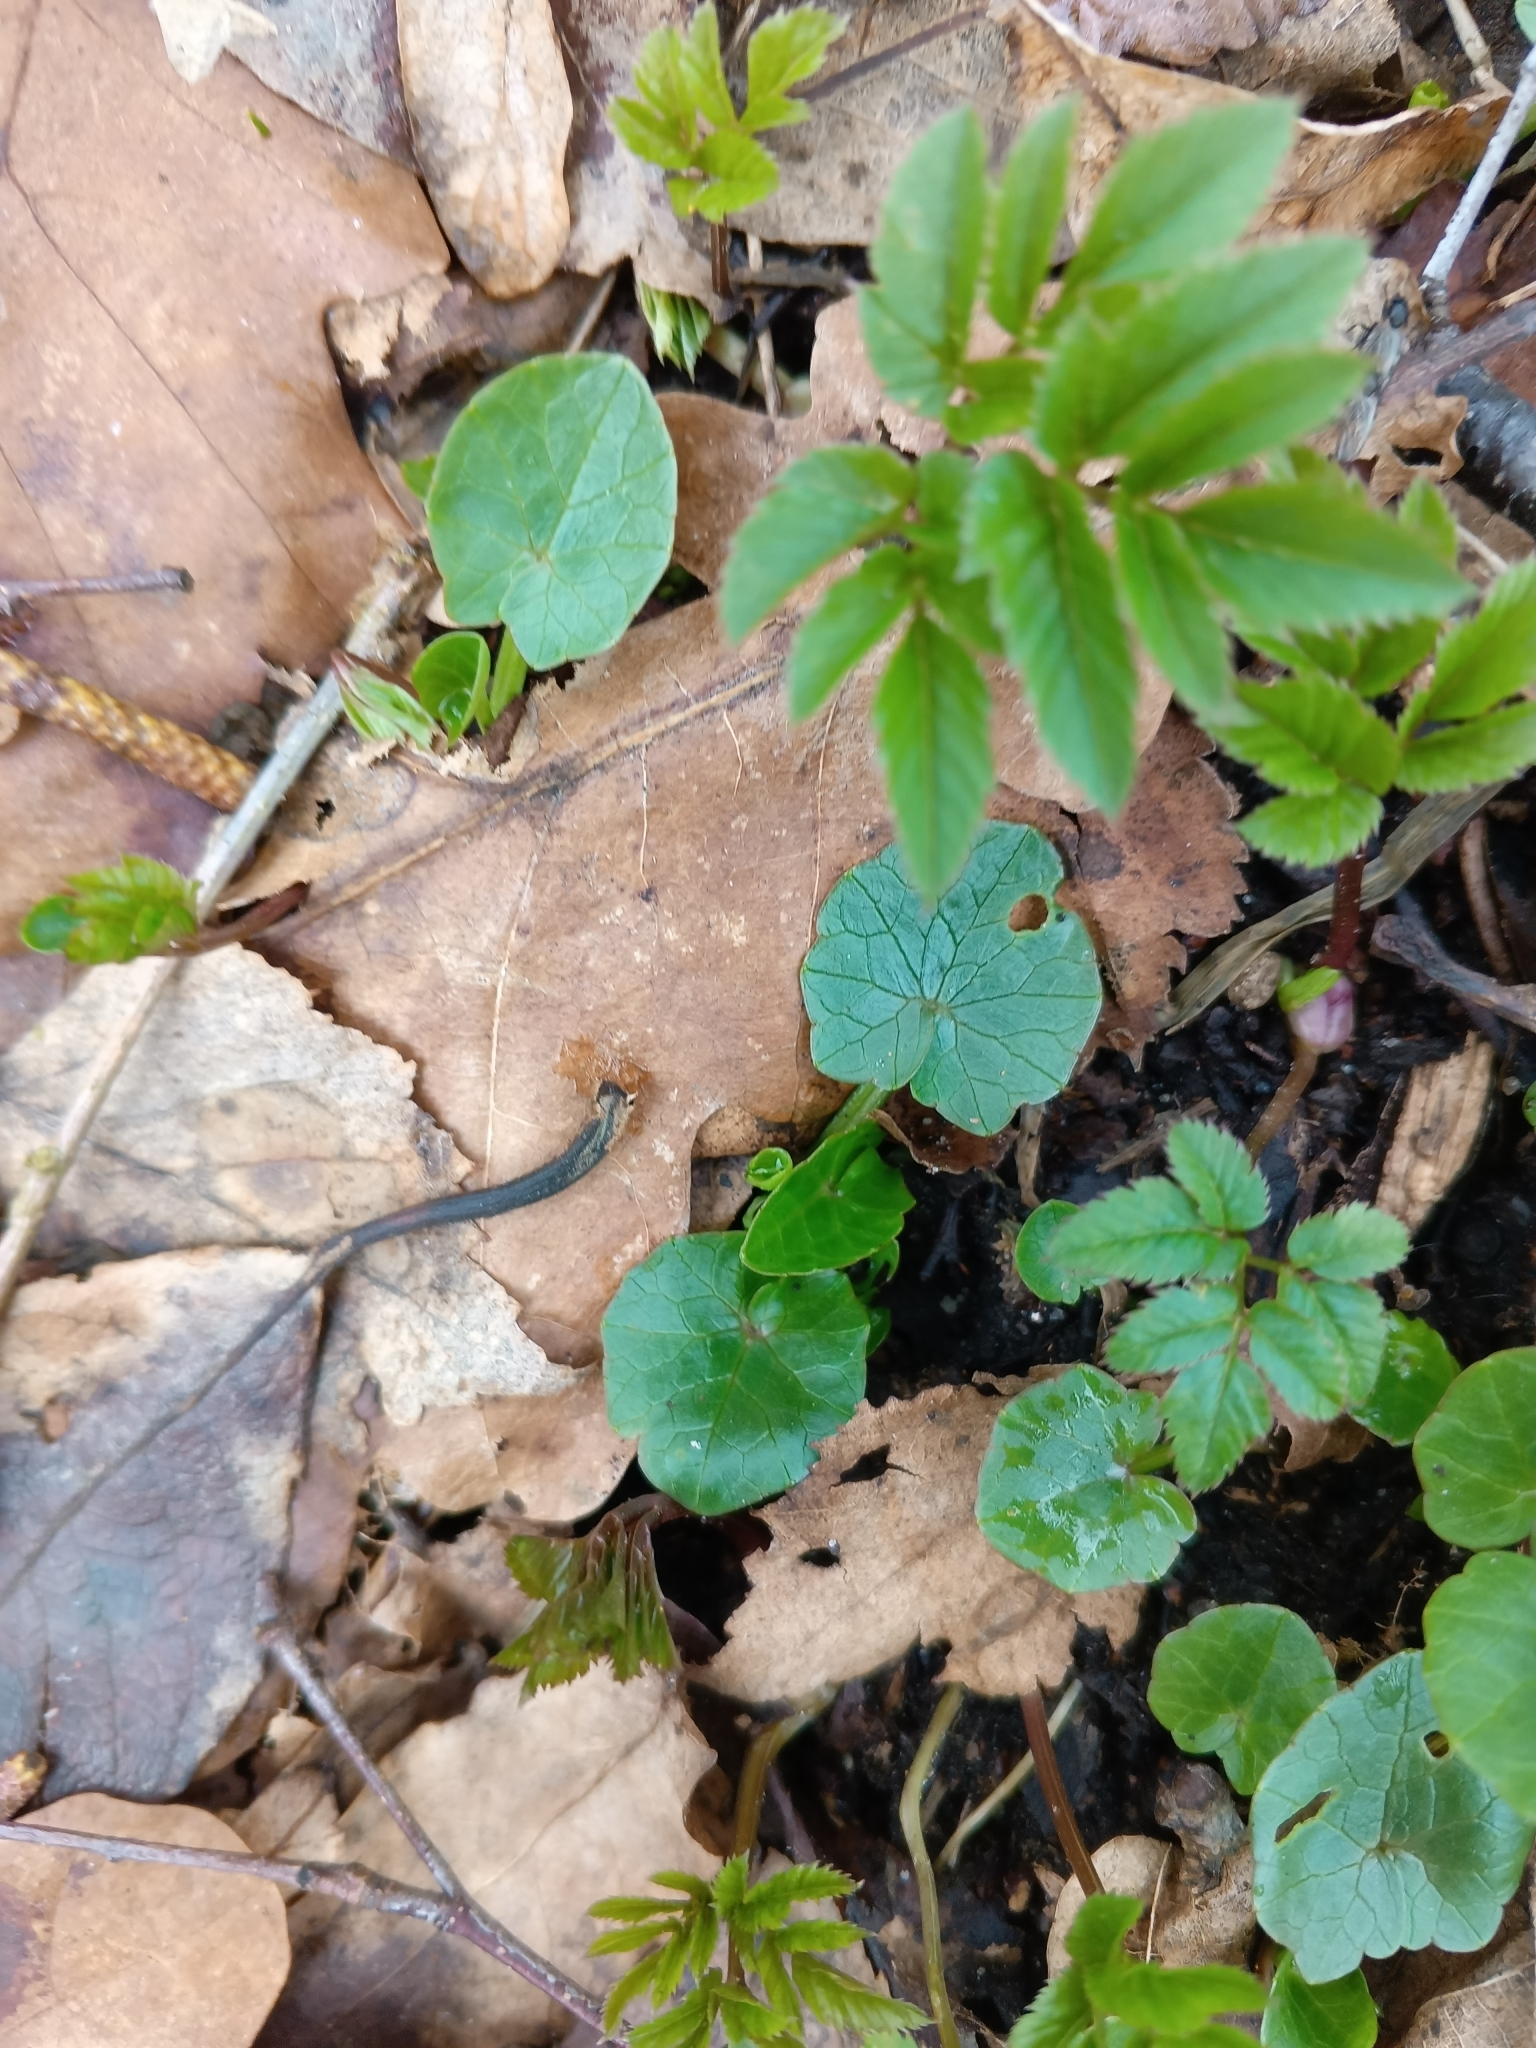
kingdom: Plantae
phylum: Tracheophyta
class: Magnoliopsida
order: Ranunculales
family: Ranunculaceae
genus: Ficaria
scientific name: Ficaria verna
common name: Lesser celandine
